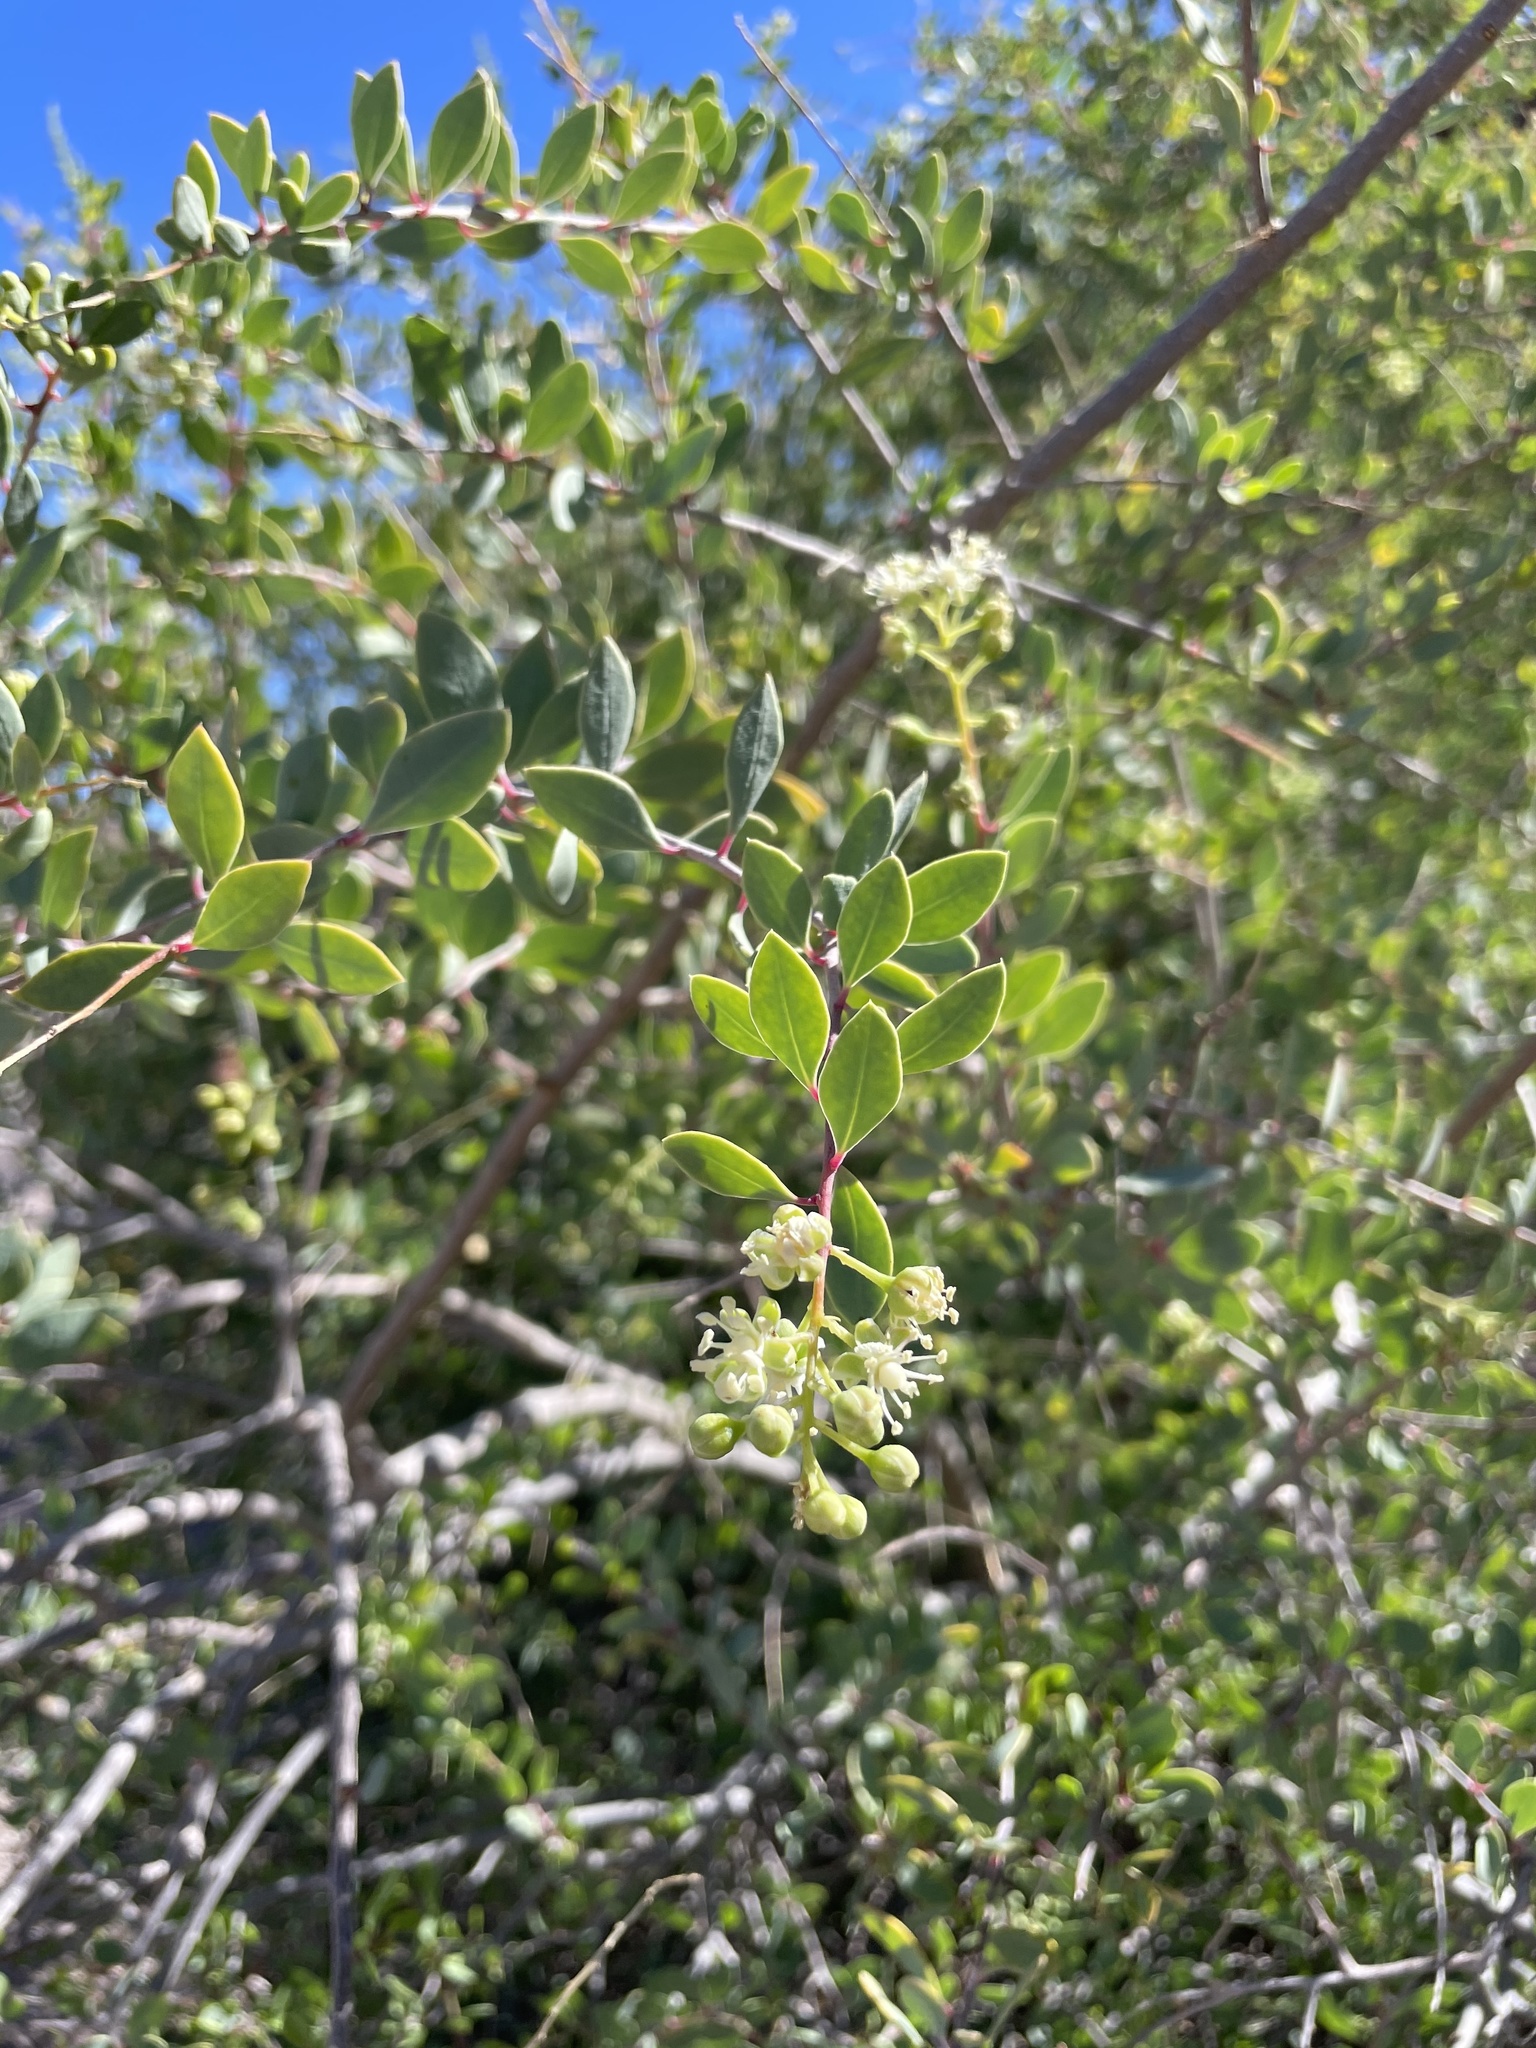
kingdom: Plantae
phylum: Tracheophyta
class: Magnoliopsida
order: Caryophyllales
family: Stegnospermataceae
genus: Stegnosperma
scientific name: Stegnosperma halimifolium
